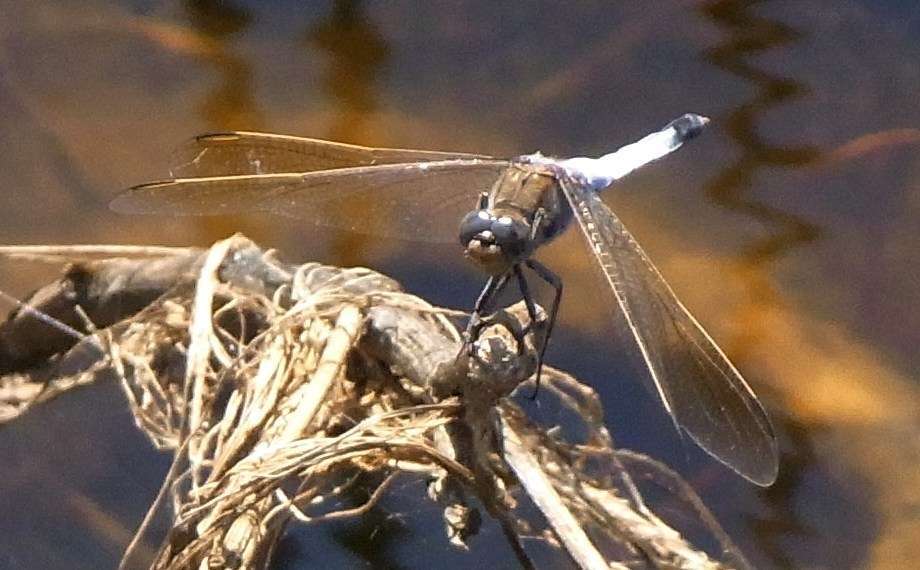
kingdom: Animalia
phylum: Arthropoda
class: Insecta
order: Odonata
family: Libellulidae
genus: Orthetrum
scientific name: Orthetrum caledonicum
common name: Blue skimmer
